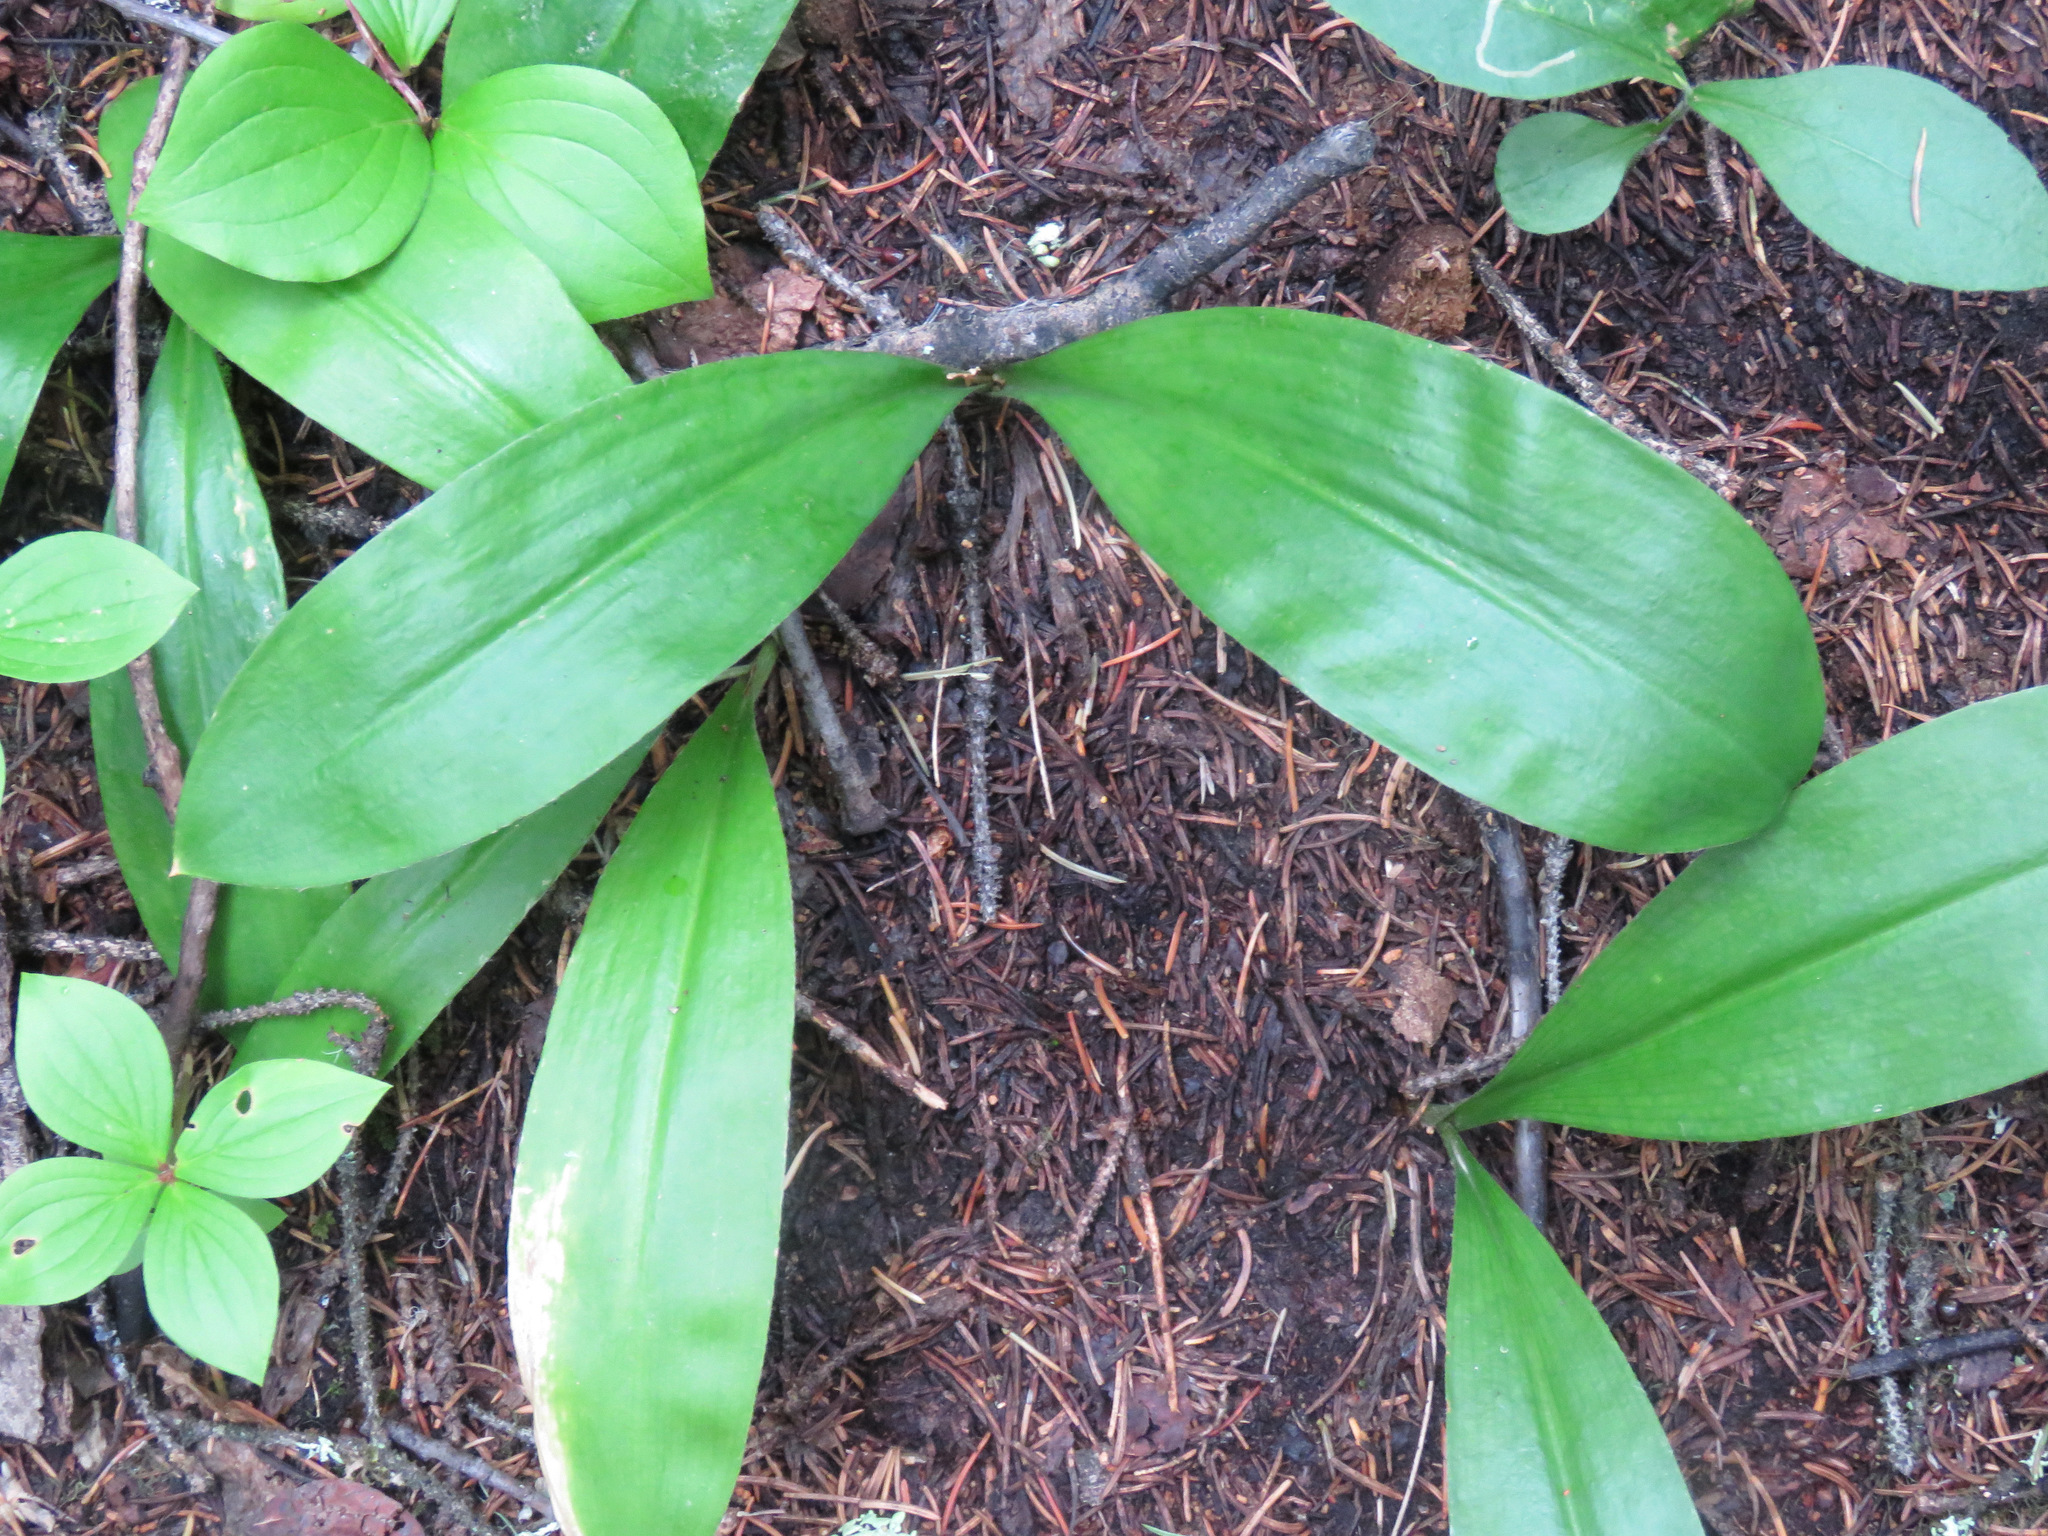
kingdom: Plantae
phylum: Tracheophyta
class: Liliopsida
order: Liliales
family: Liliaceae
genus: Clintonia
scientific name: Clintonia uniflora
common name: Queen's cup
